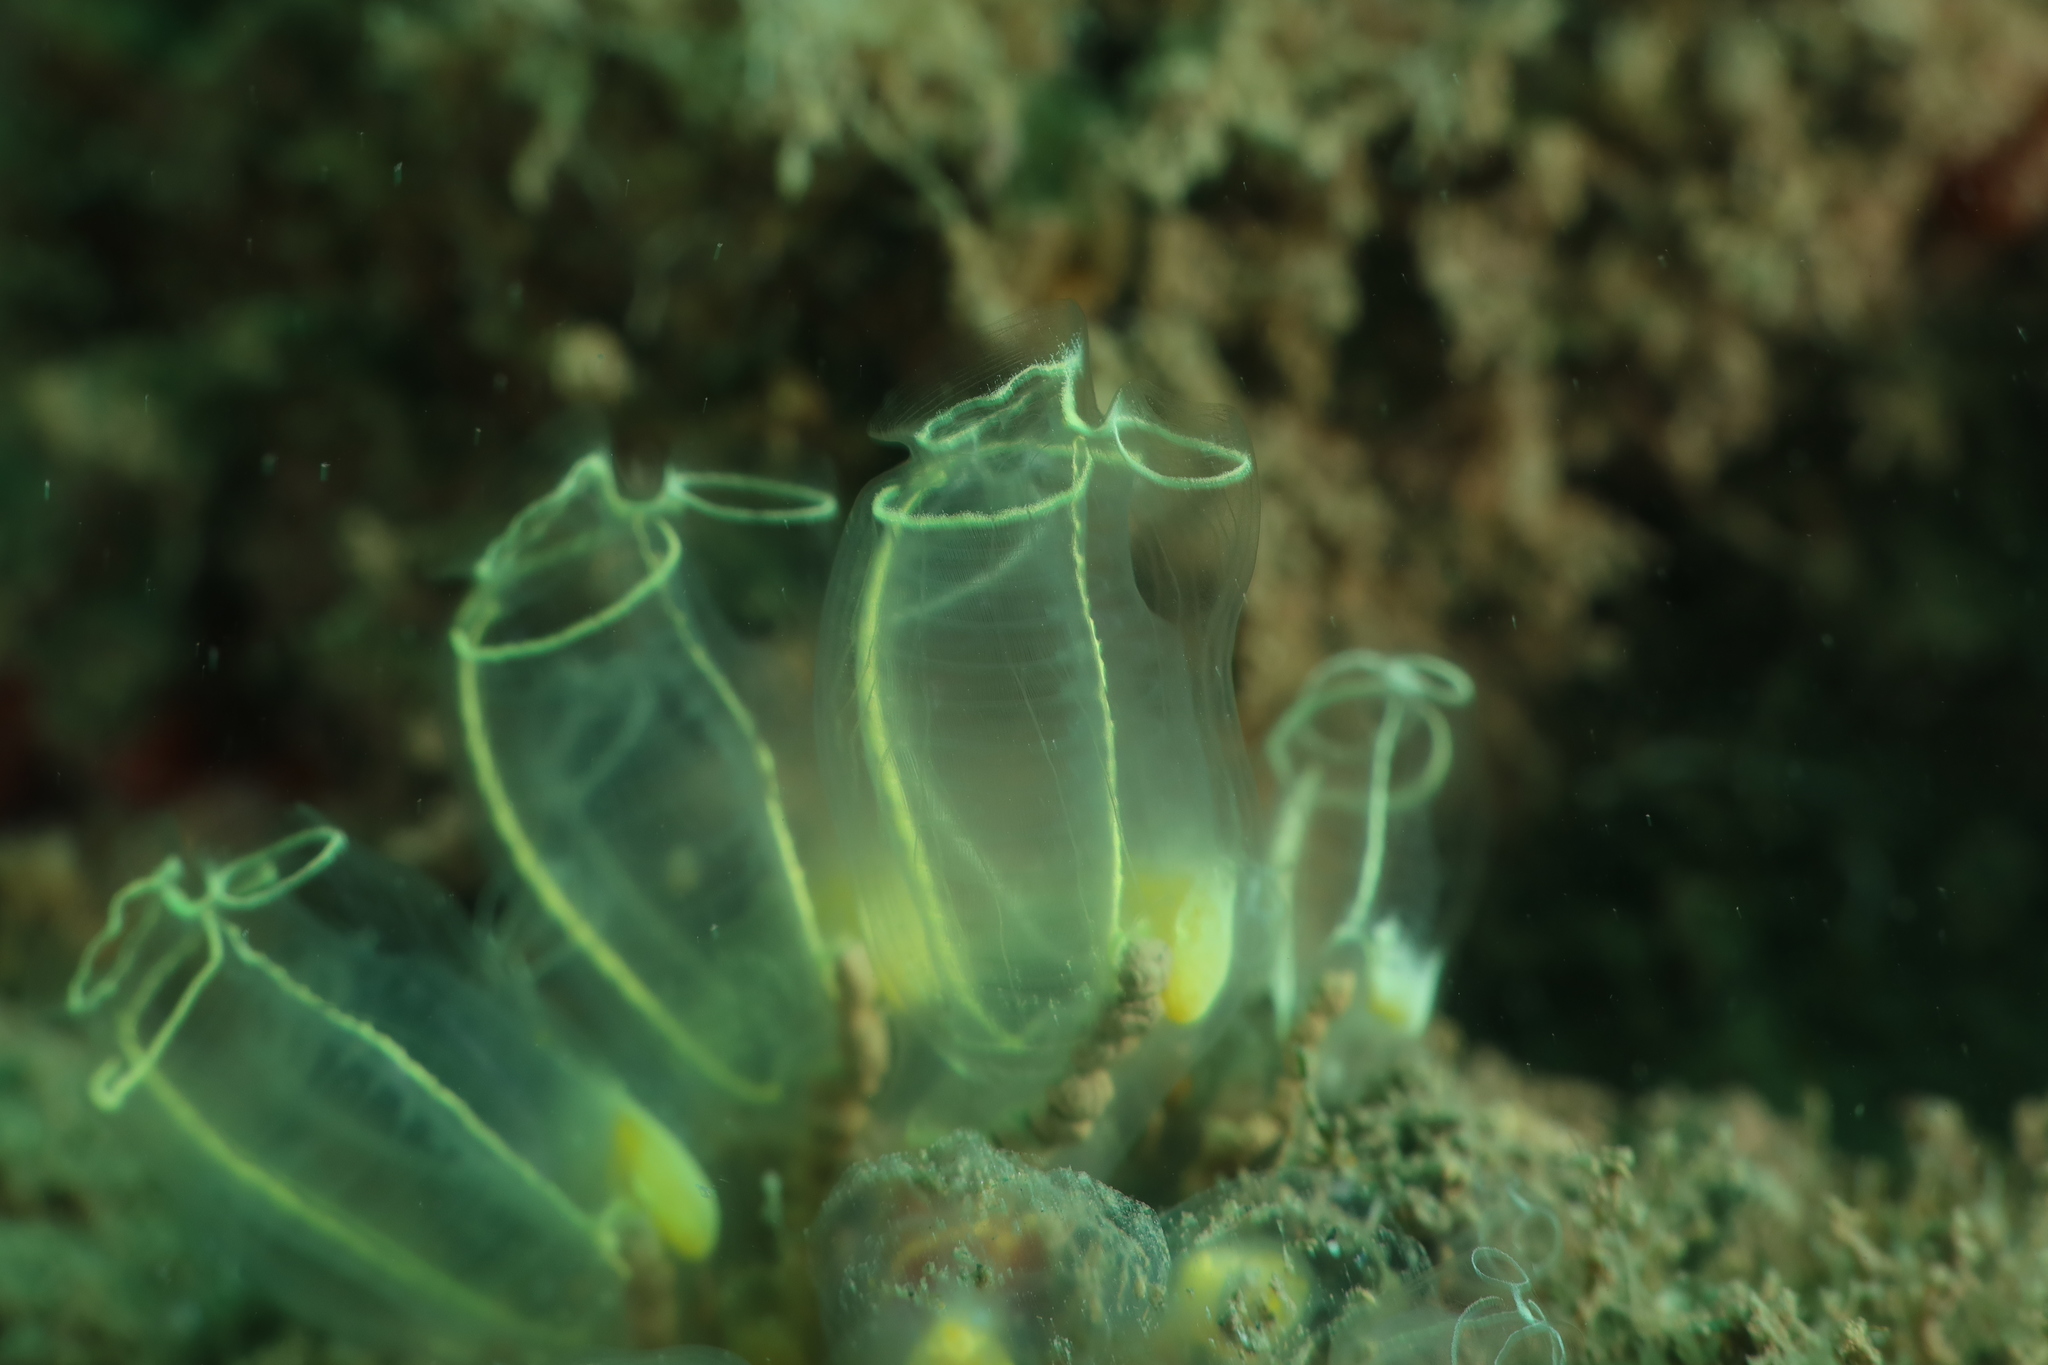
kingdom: Animalia
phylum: Chordata
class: Ascidiacea
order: Aplousobranchia
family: Clavelinidae
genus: Clavelina
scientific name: Clavelina lepadiformis
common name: Light bulb tunicate
